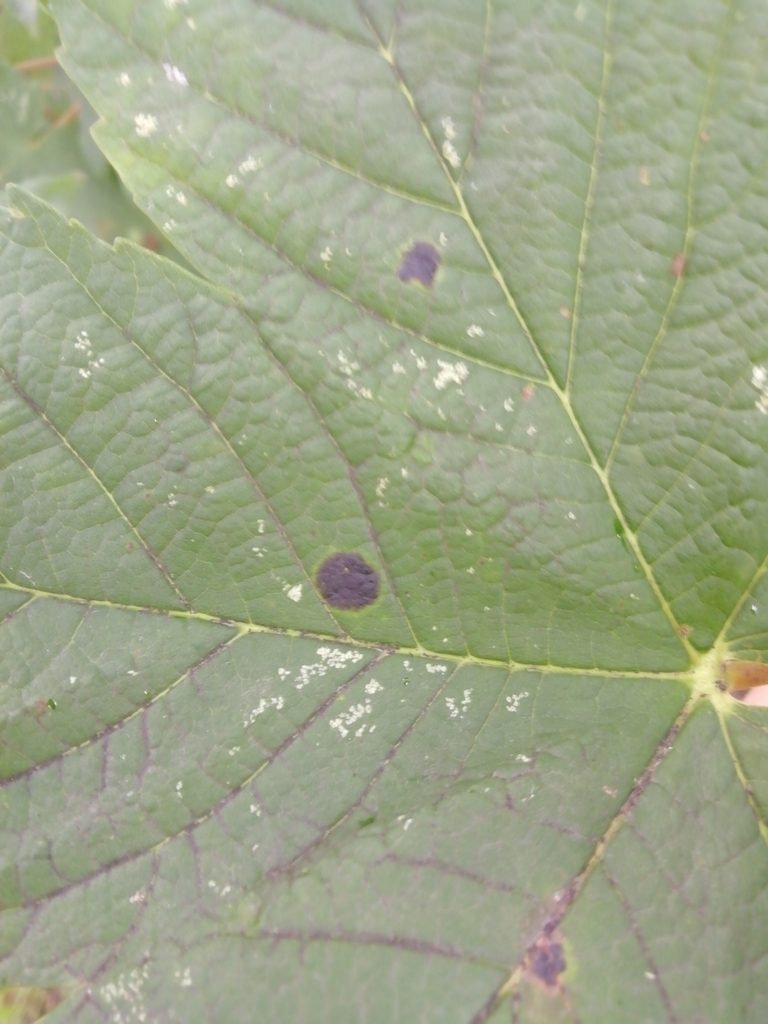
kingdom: Fungi
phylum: Ascomycota
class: Leotiomycetes
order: Rhytismatales
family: Rhytismataceae
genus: Rhytisma
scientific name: Rhytisma acerinum
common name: European tar spot
